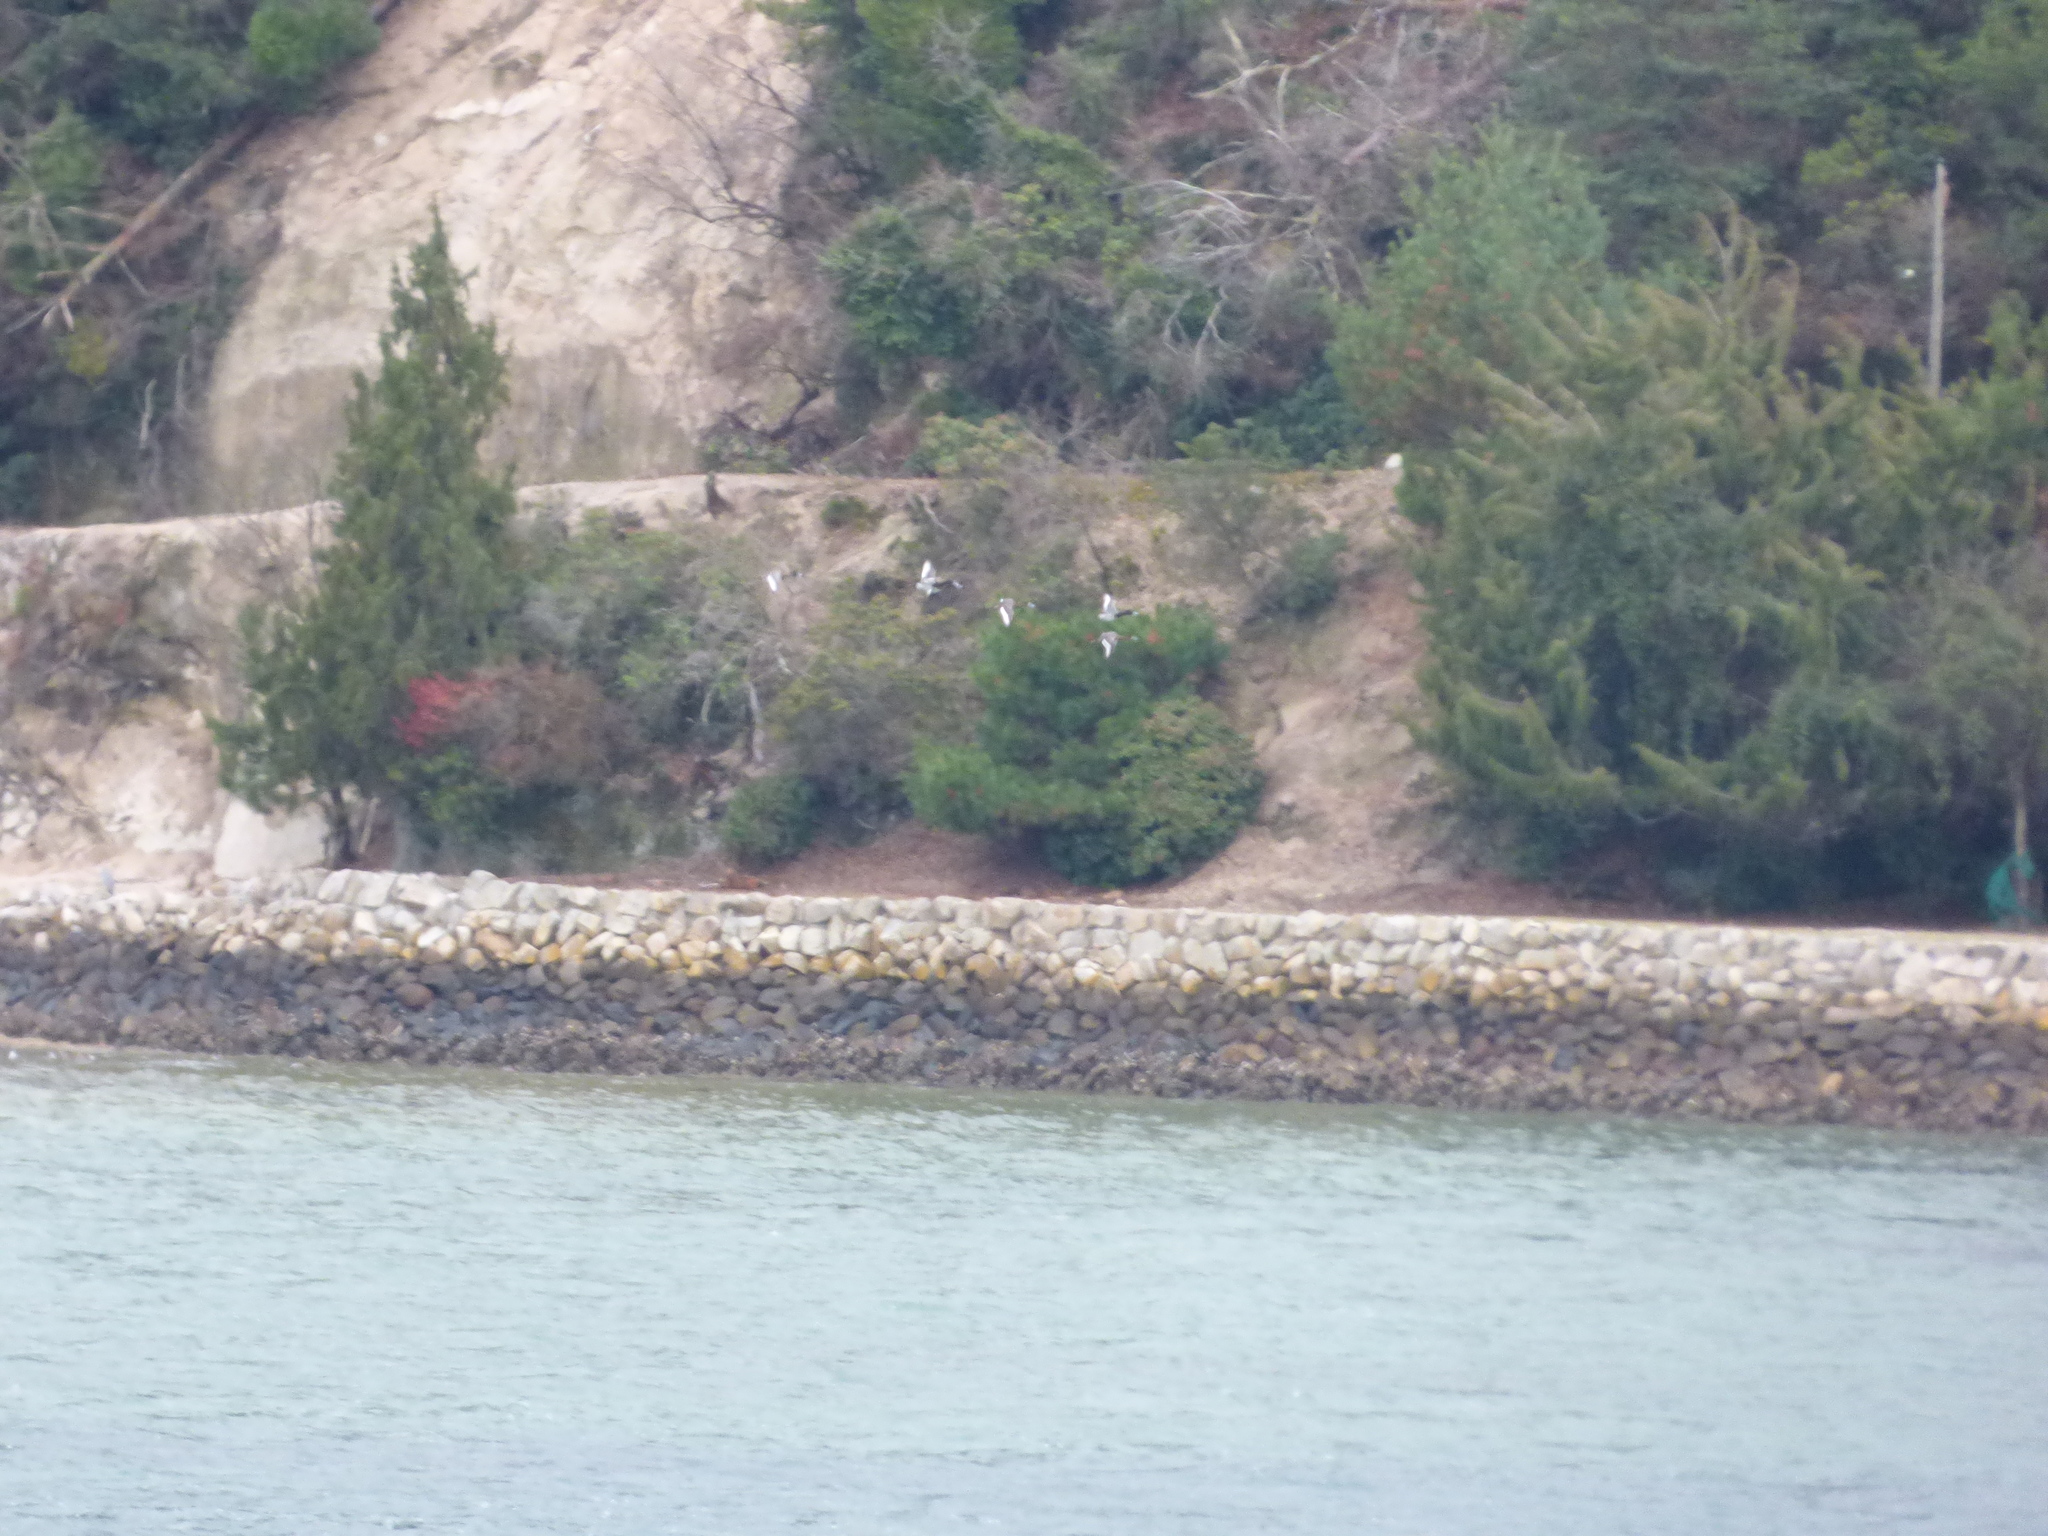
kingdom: Animalia
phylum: Chordata
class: Aves
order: Anseriformes
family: Anatidae
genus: Aythya
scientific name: Aythya marila
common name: Greater scaup
